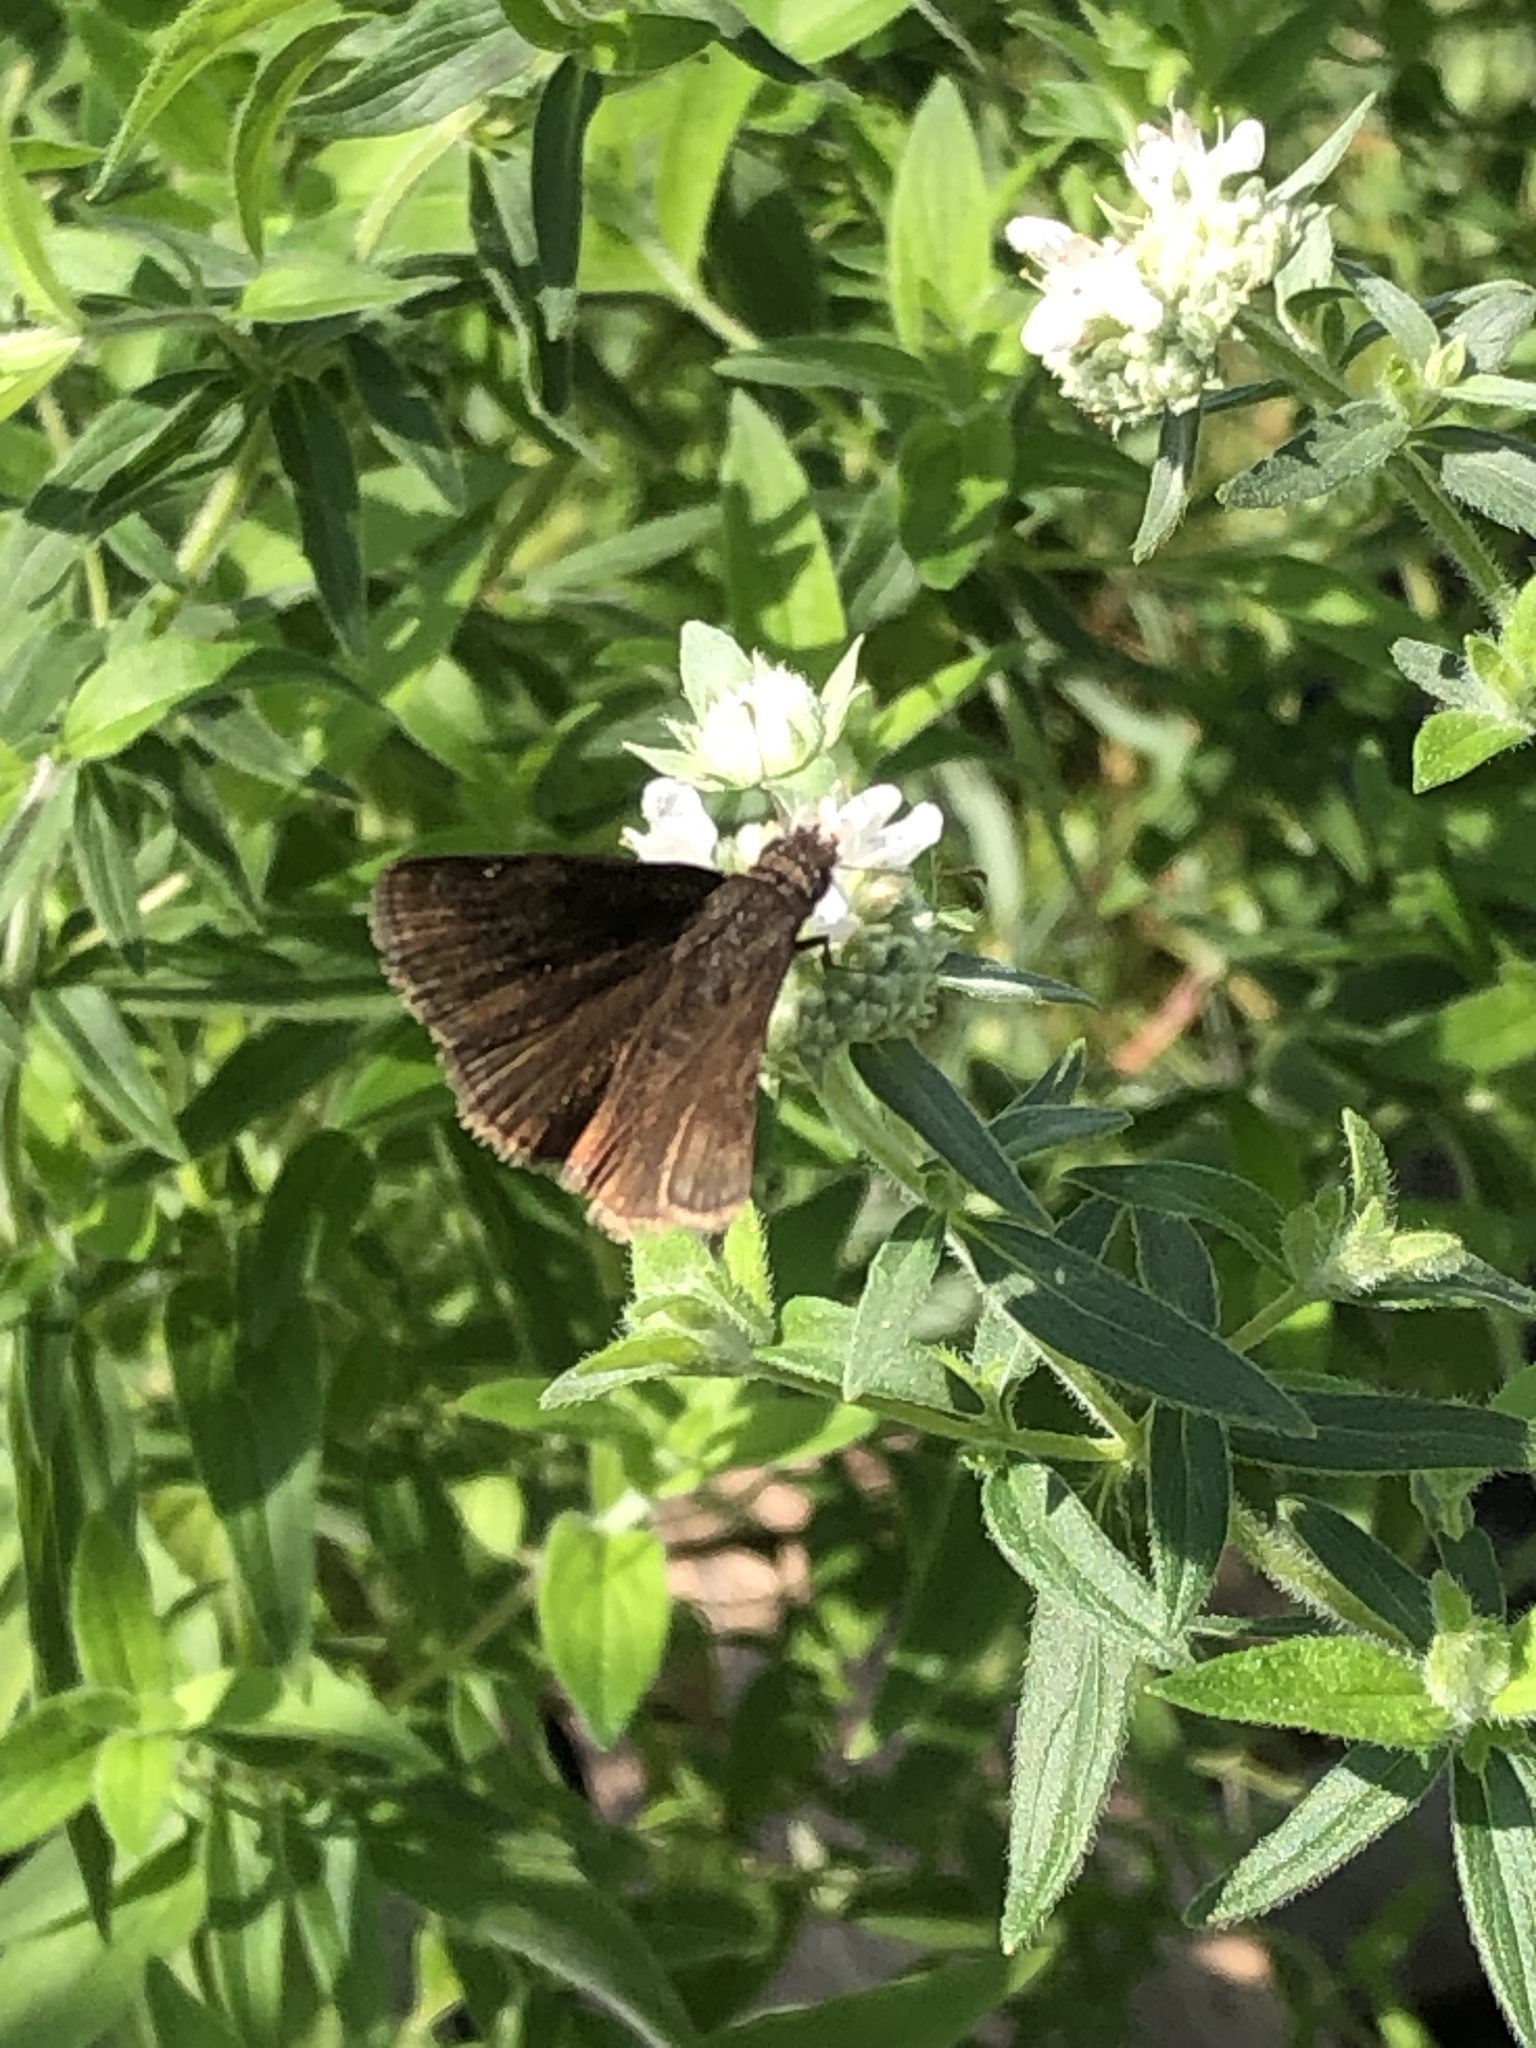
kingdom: Animalia
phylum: Arthropoda
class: Insecta
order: Lepidoptera
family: Hesperiidae
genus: Erynnis
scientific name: Erynnis baptisiae
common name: Wild indigo duskywing
